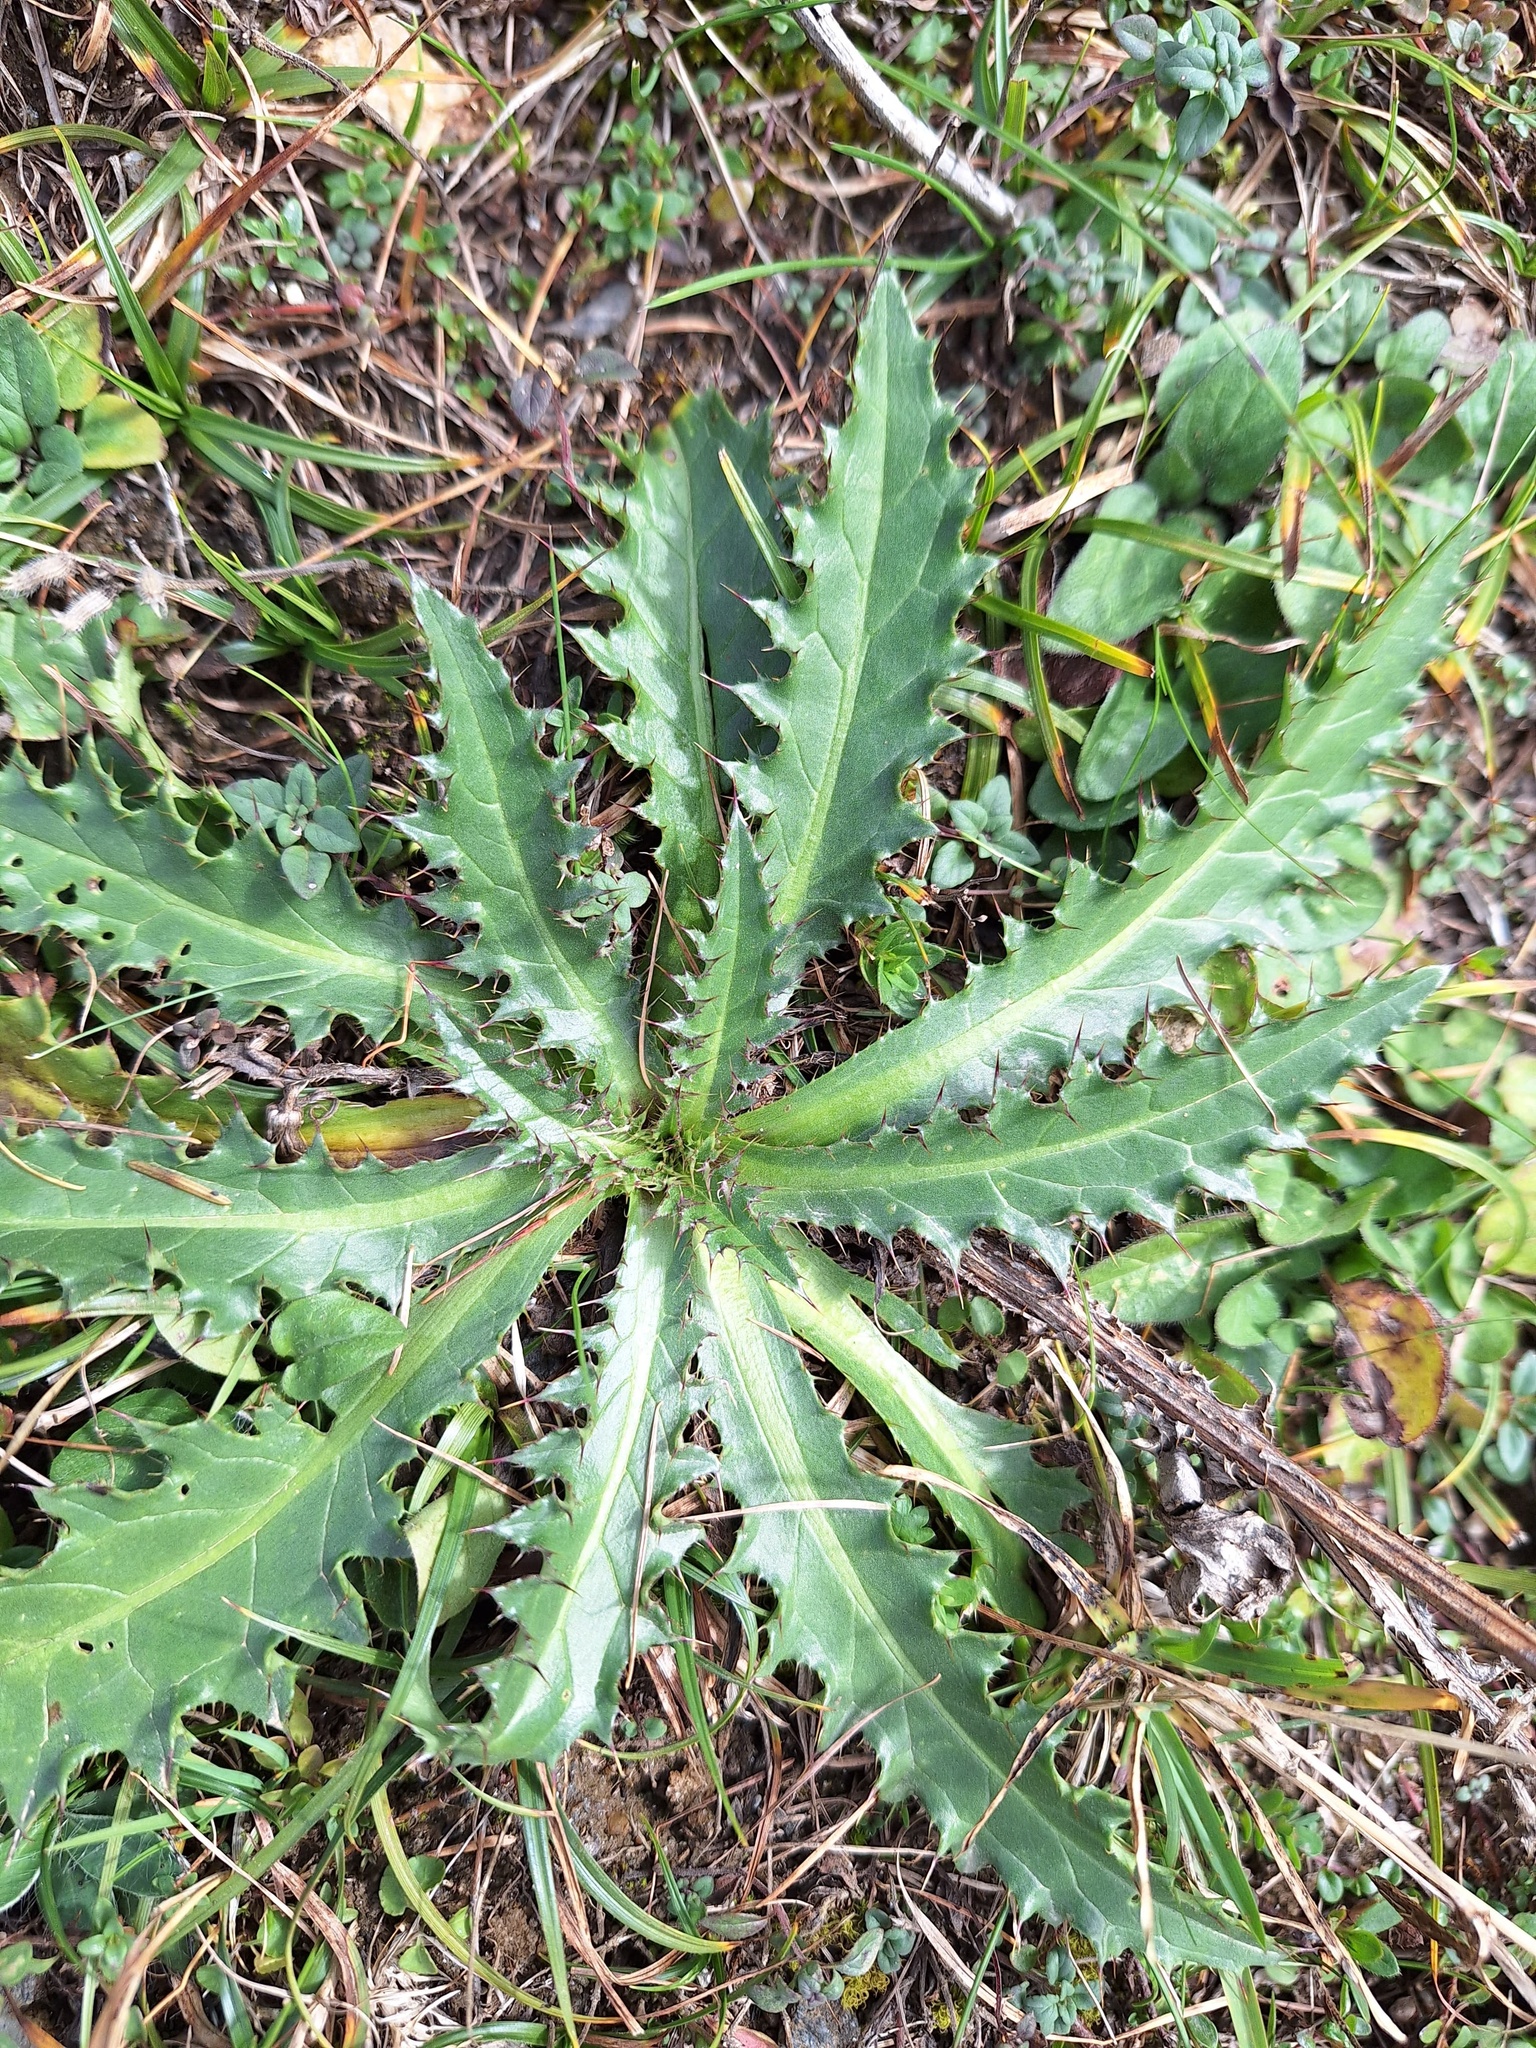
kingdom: Plantae
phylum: Tracheophyta
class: Magnoliopsida
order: Asterales
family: Asteraceae
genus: Carduus
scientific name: Carduus defloratus
